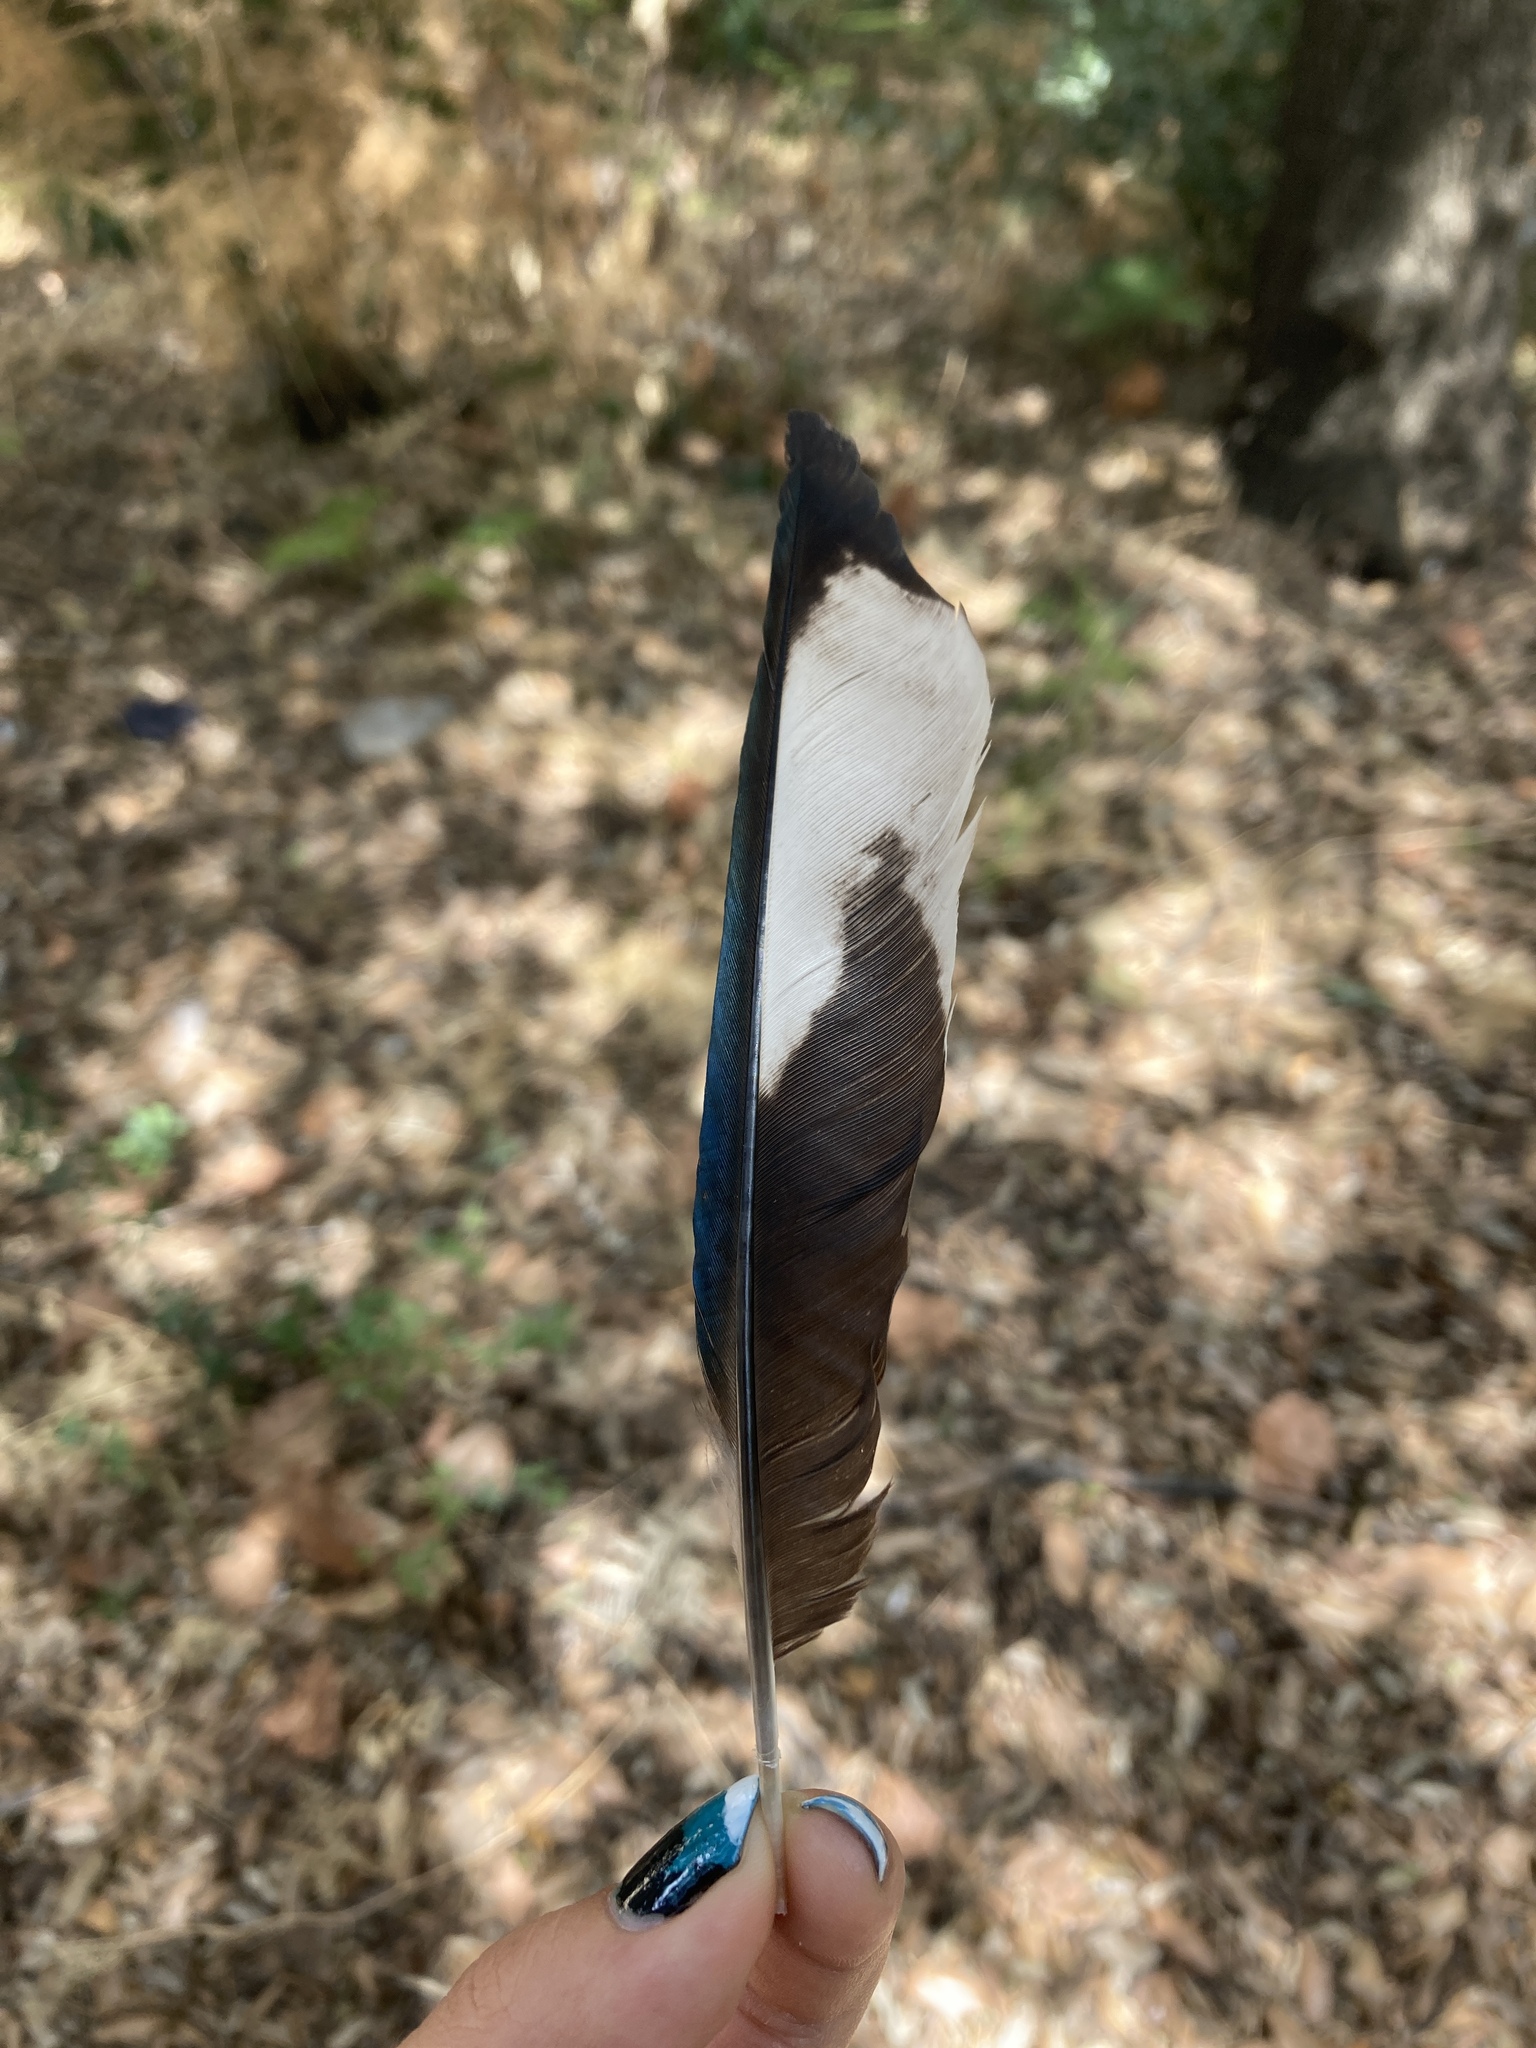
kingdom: Animalia
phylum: Chordata
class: Aves
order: Passeriformes
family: Corvidae
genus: Pica
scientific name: Pica pica
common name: Eurasian magpie
